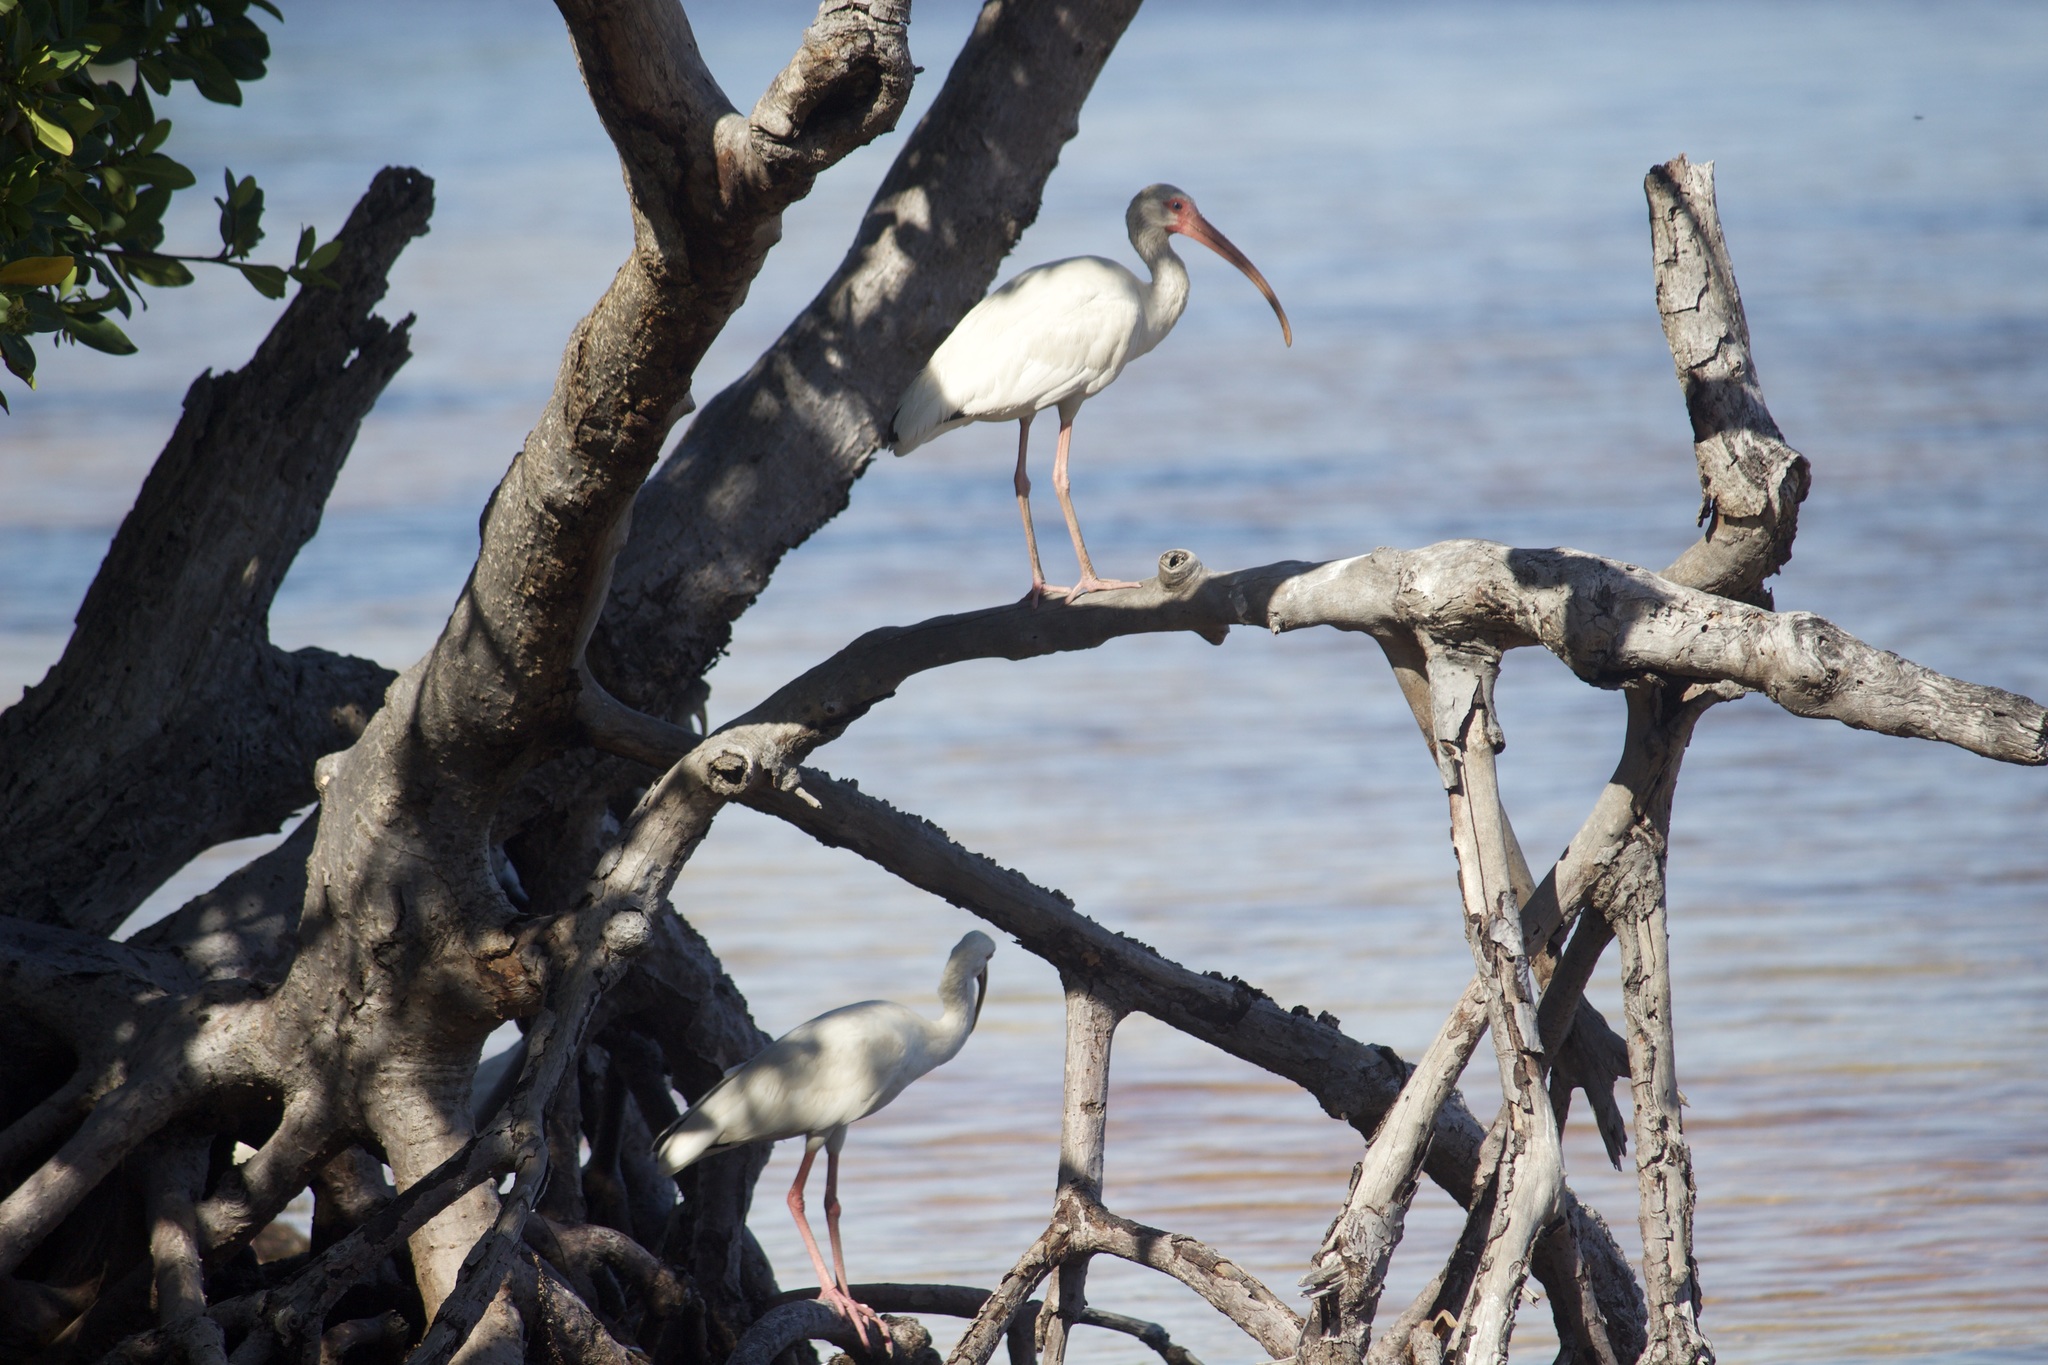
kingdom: Animalia
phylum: Chordata
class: Aves
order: Pelecaniformes
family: Threskiornithidae
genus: Eudocimus
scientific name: Eudocimus albus
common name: White ibis
